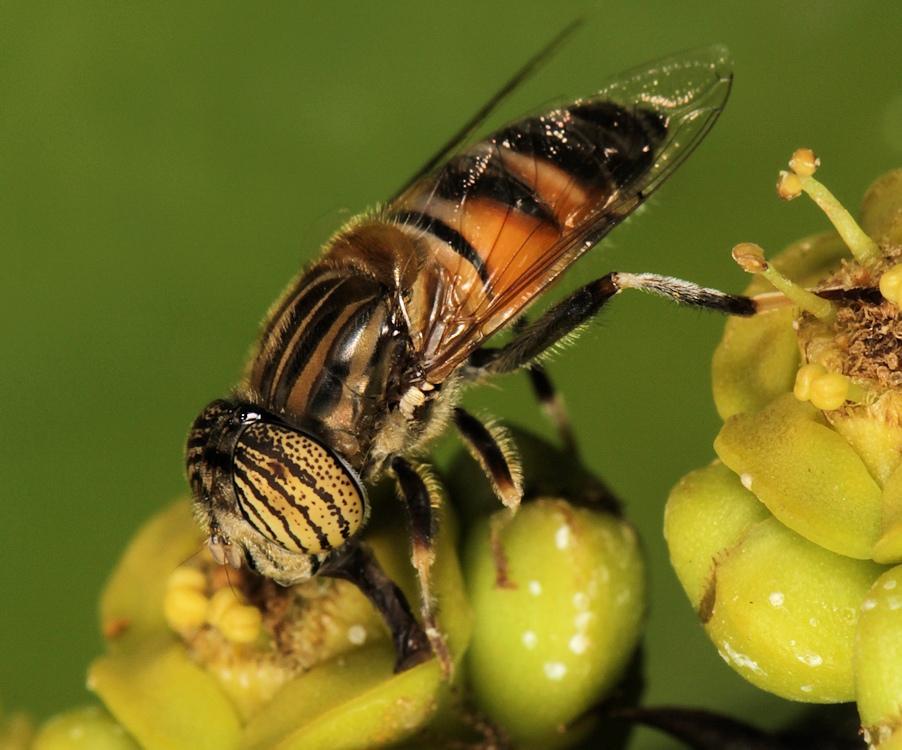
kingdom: Animalia
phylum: Arthropoda
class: Insecta
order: Diptera
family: Syrphidae
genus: Eristalinus
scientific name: Eristalinus quinquelineatus
